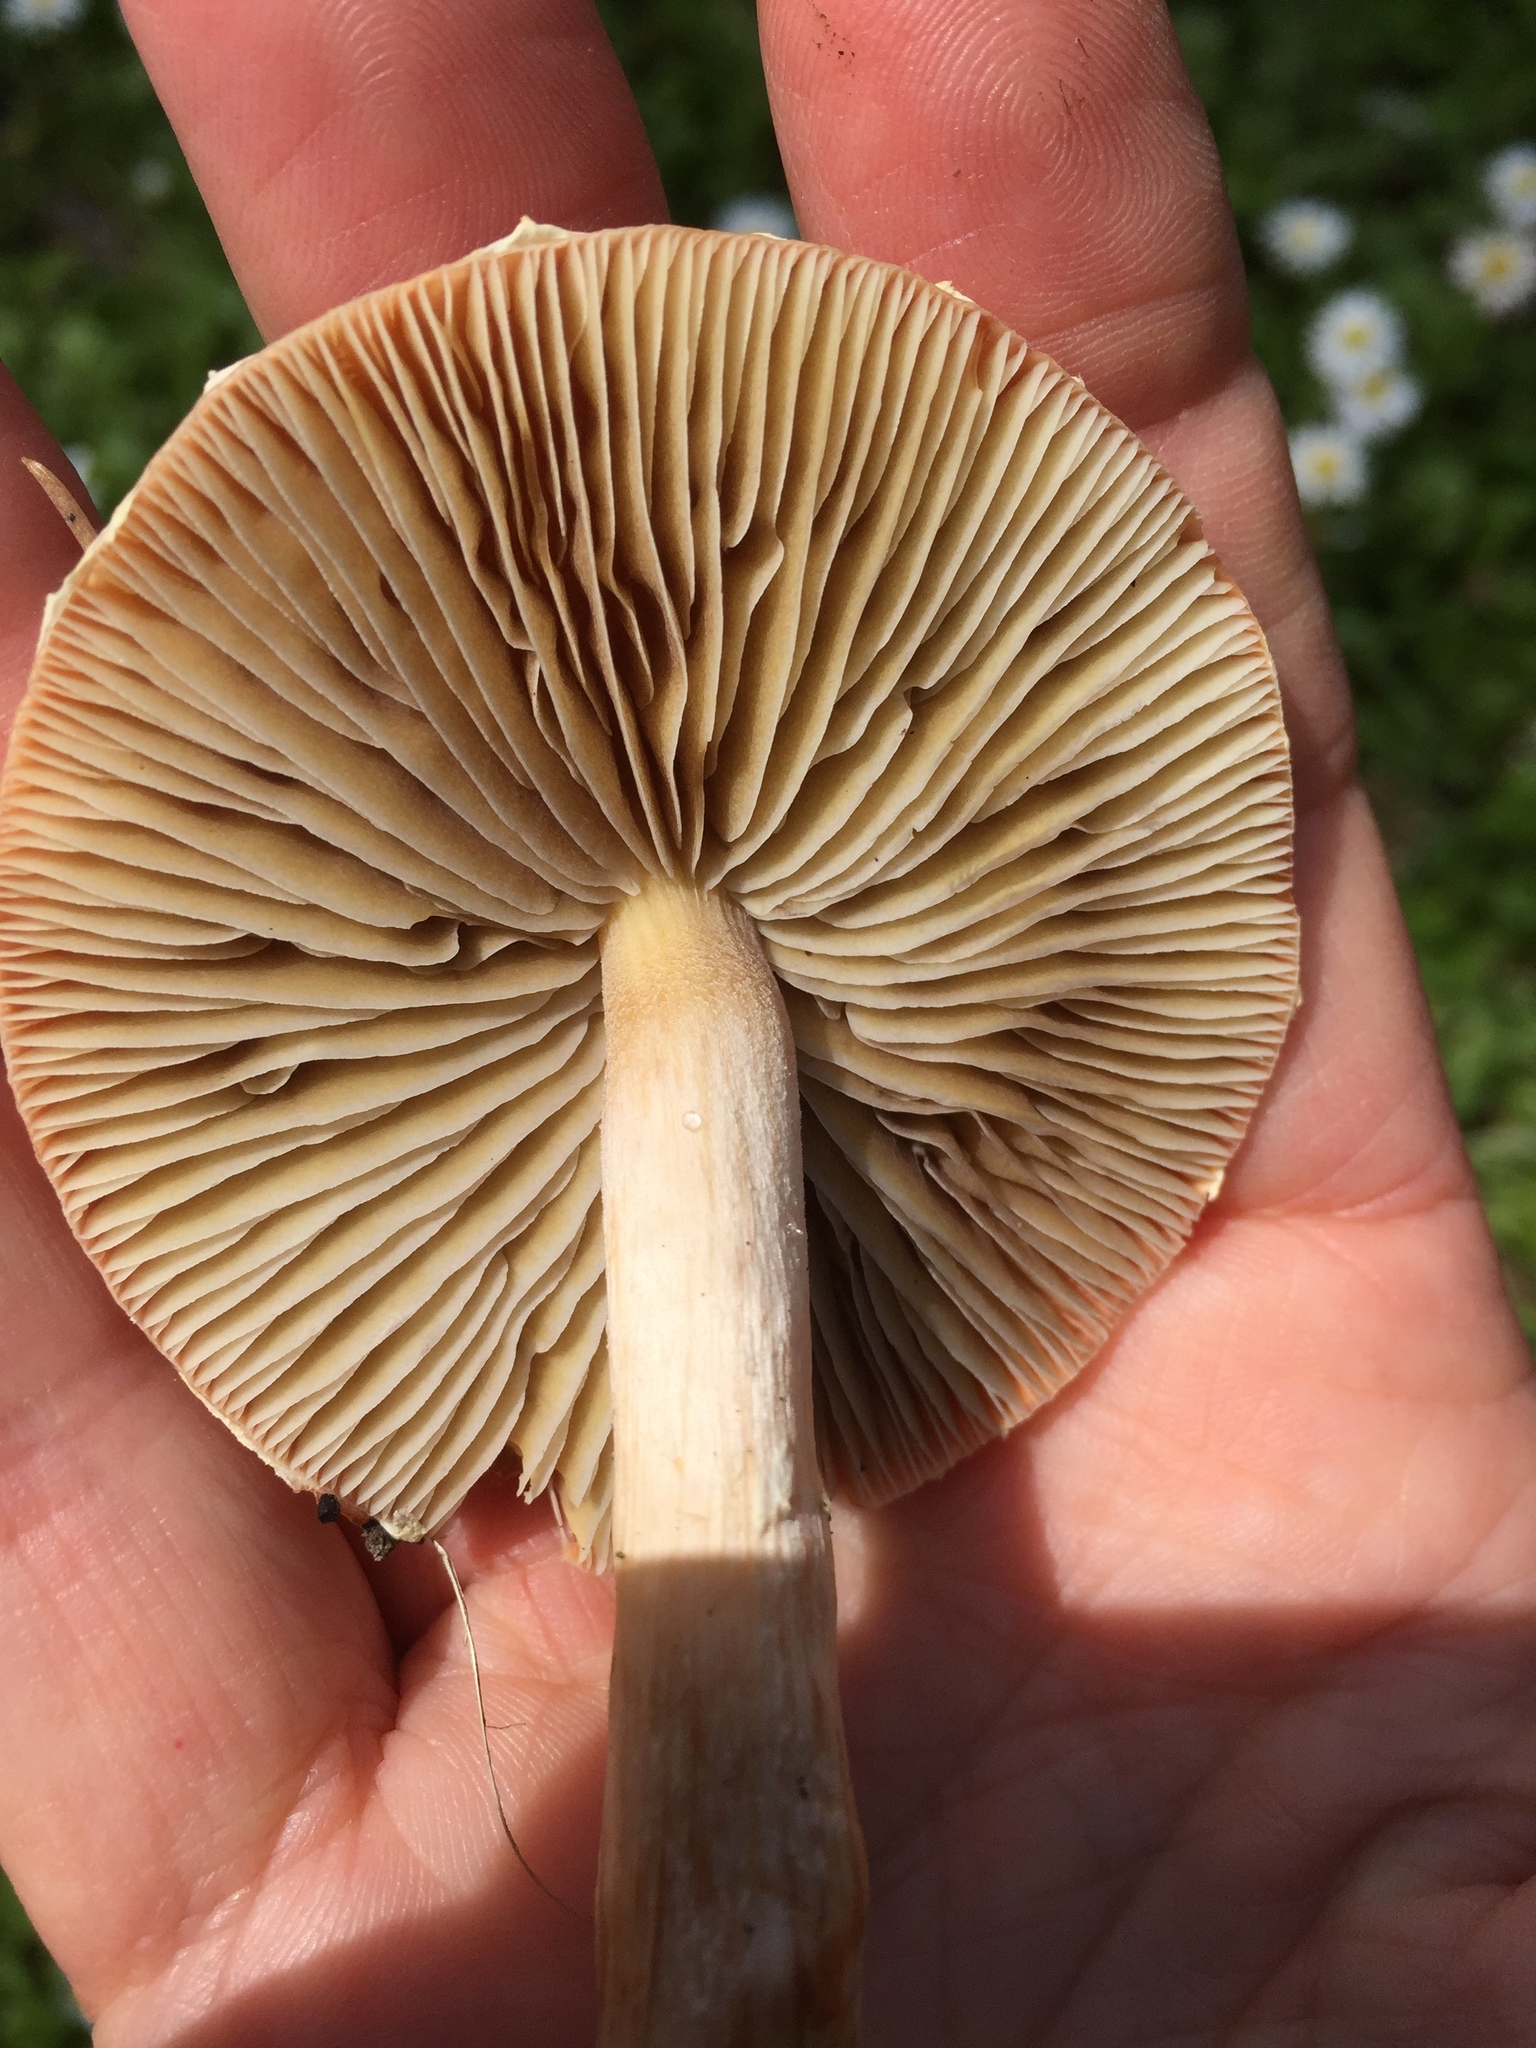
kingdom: Fungi
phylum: Basidiomycota
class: Agaricomycetes
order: Agaricales
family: Strophariaceae
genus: Leratiomyces
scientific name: Leratiomyces ceres
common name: Redlead roundhead
